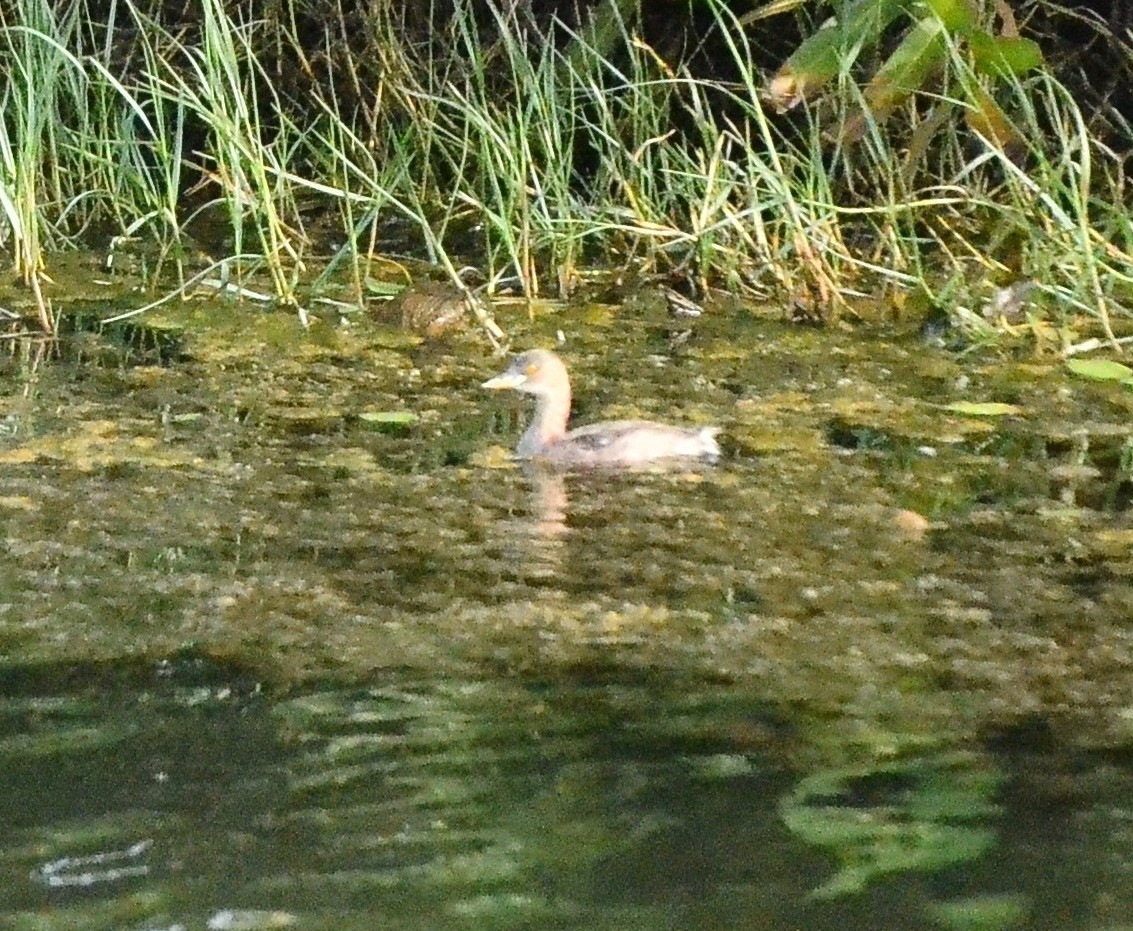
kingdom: Animalia
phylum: Chordata
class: Aves
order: Podicipediformes
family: Podicipedidae
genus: Tachybaptus
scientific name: Tachybaptus ruficollis
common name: Little grebe
